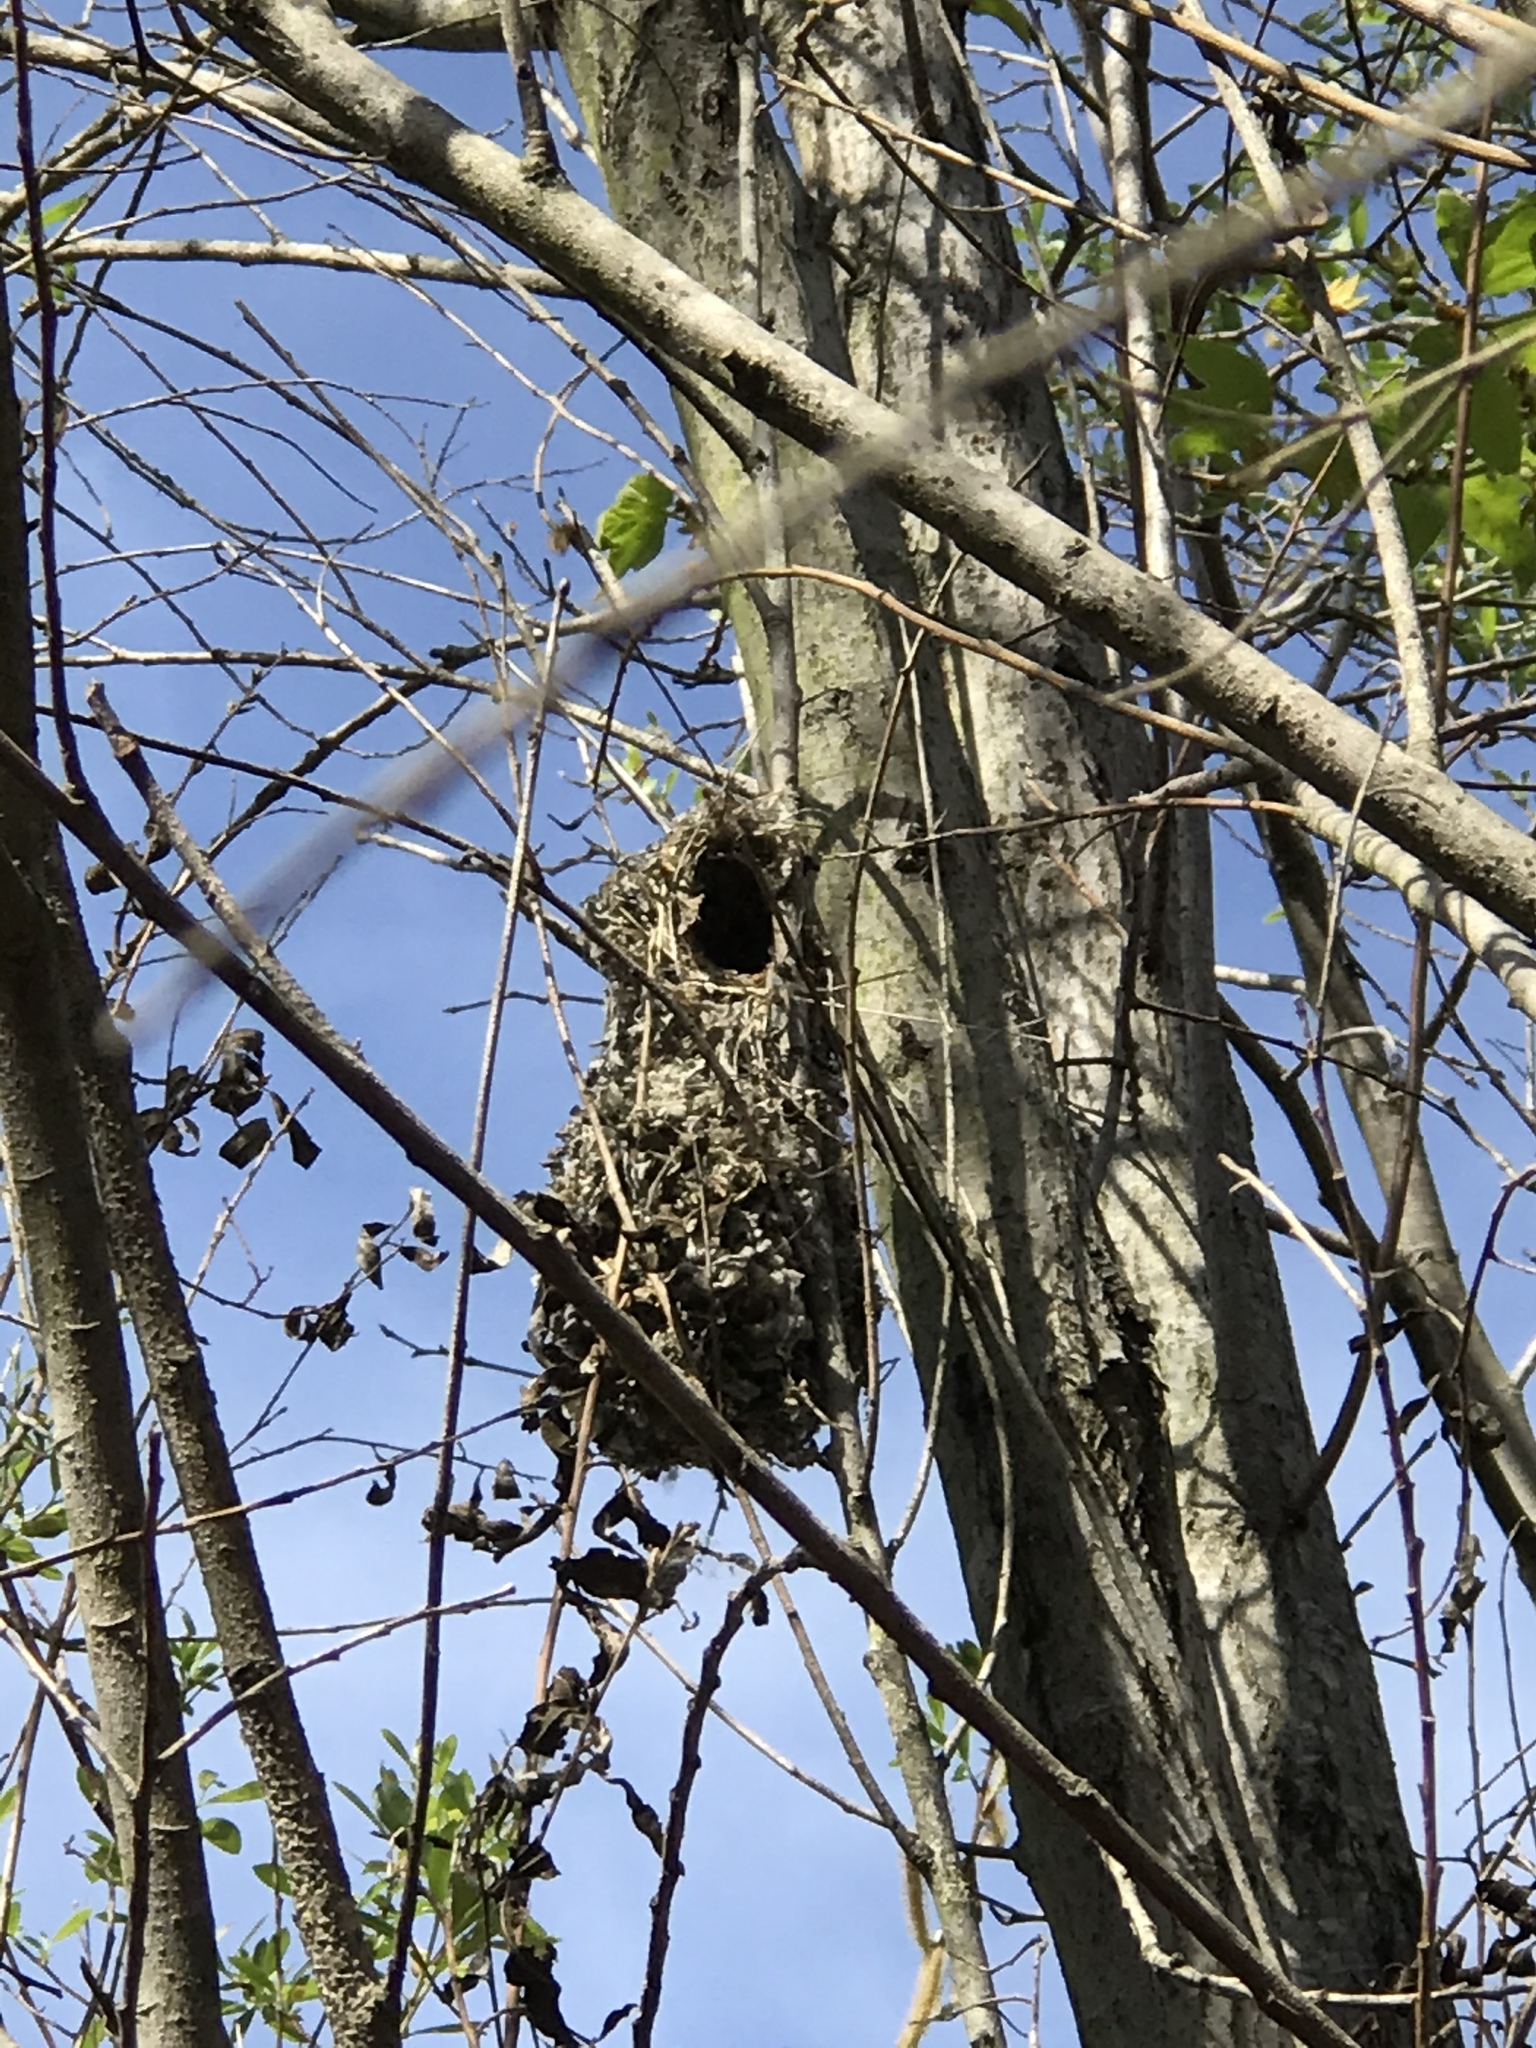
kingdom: Animalia
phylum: Chordata
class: Aves
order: Passeriformes
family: Aegithalidae
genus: Psaltriparus
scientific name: Psaltriparus minimus
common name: American bushtit
